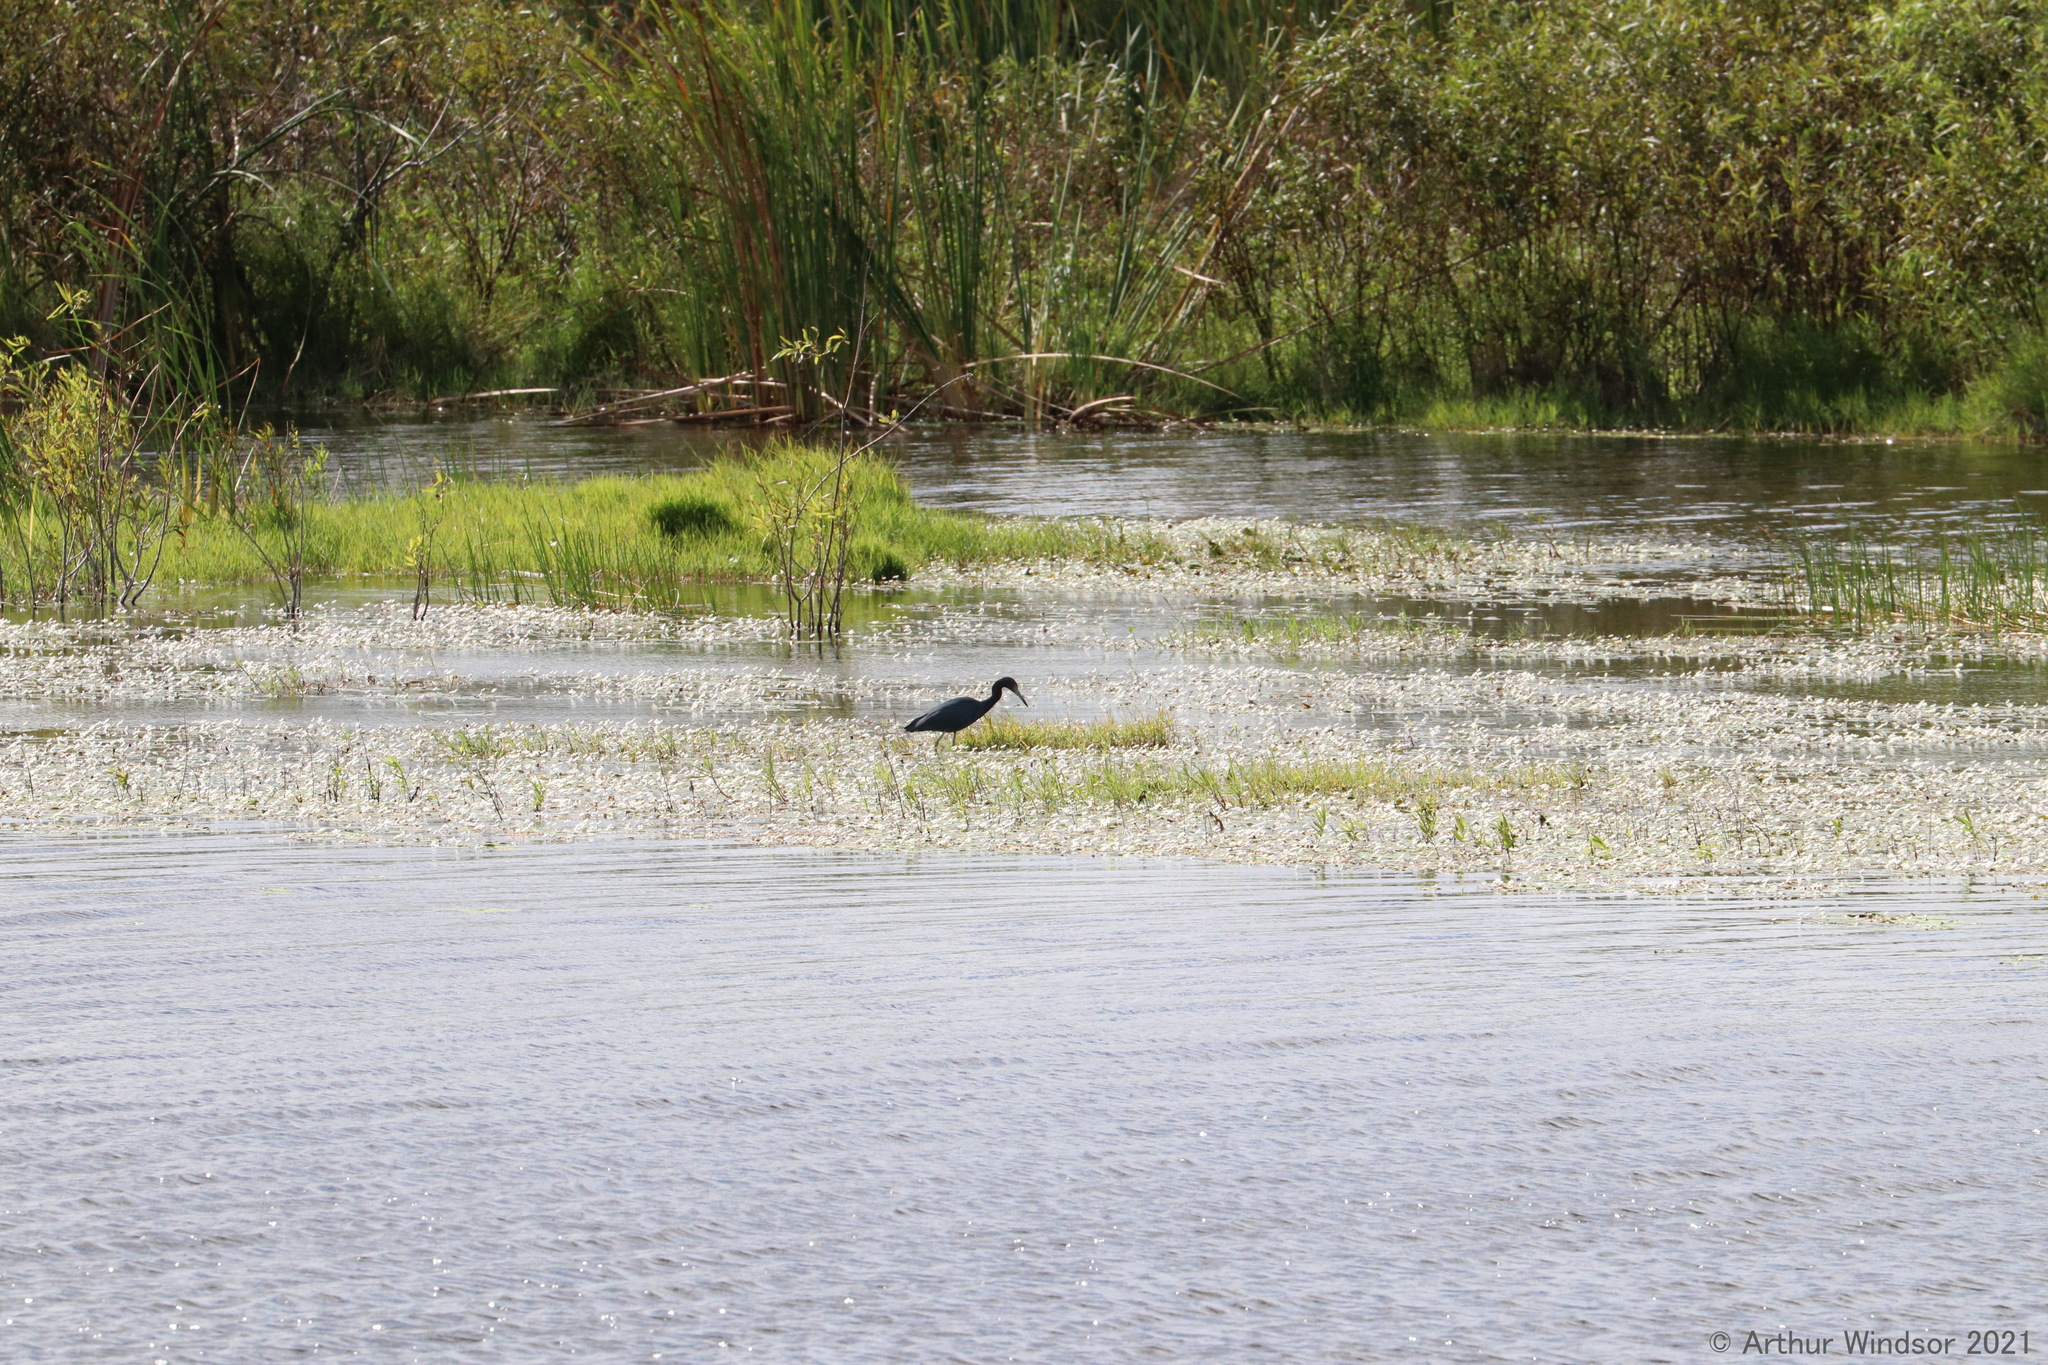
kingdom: Animalia
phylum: Chordata
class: Aves
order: Pelecaniformes
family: Ardeidae
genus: Egretta
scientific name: Egretta caerulea
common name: Little blue heron
